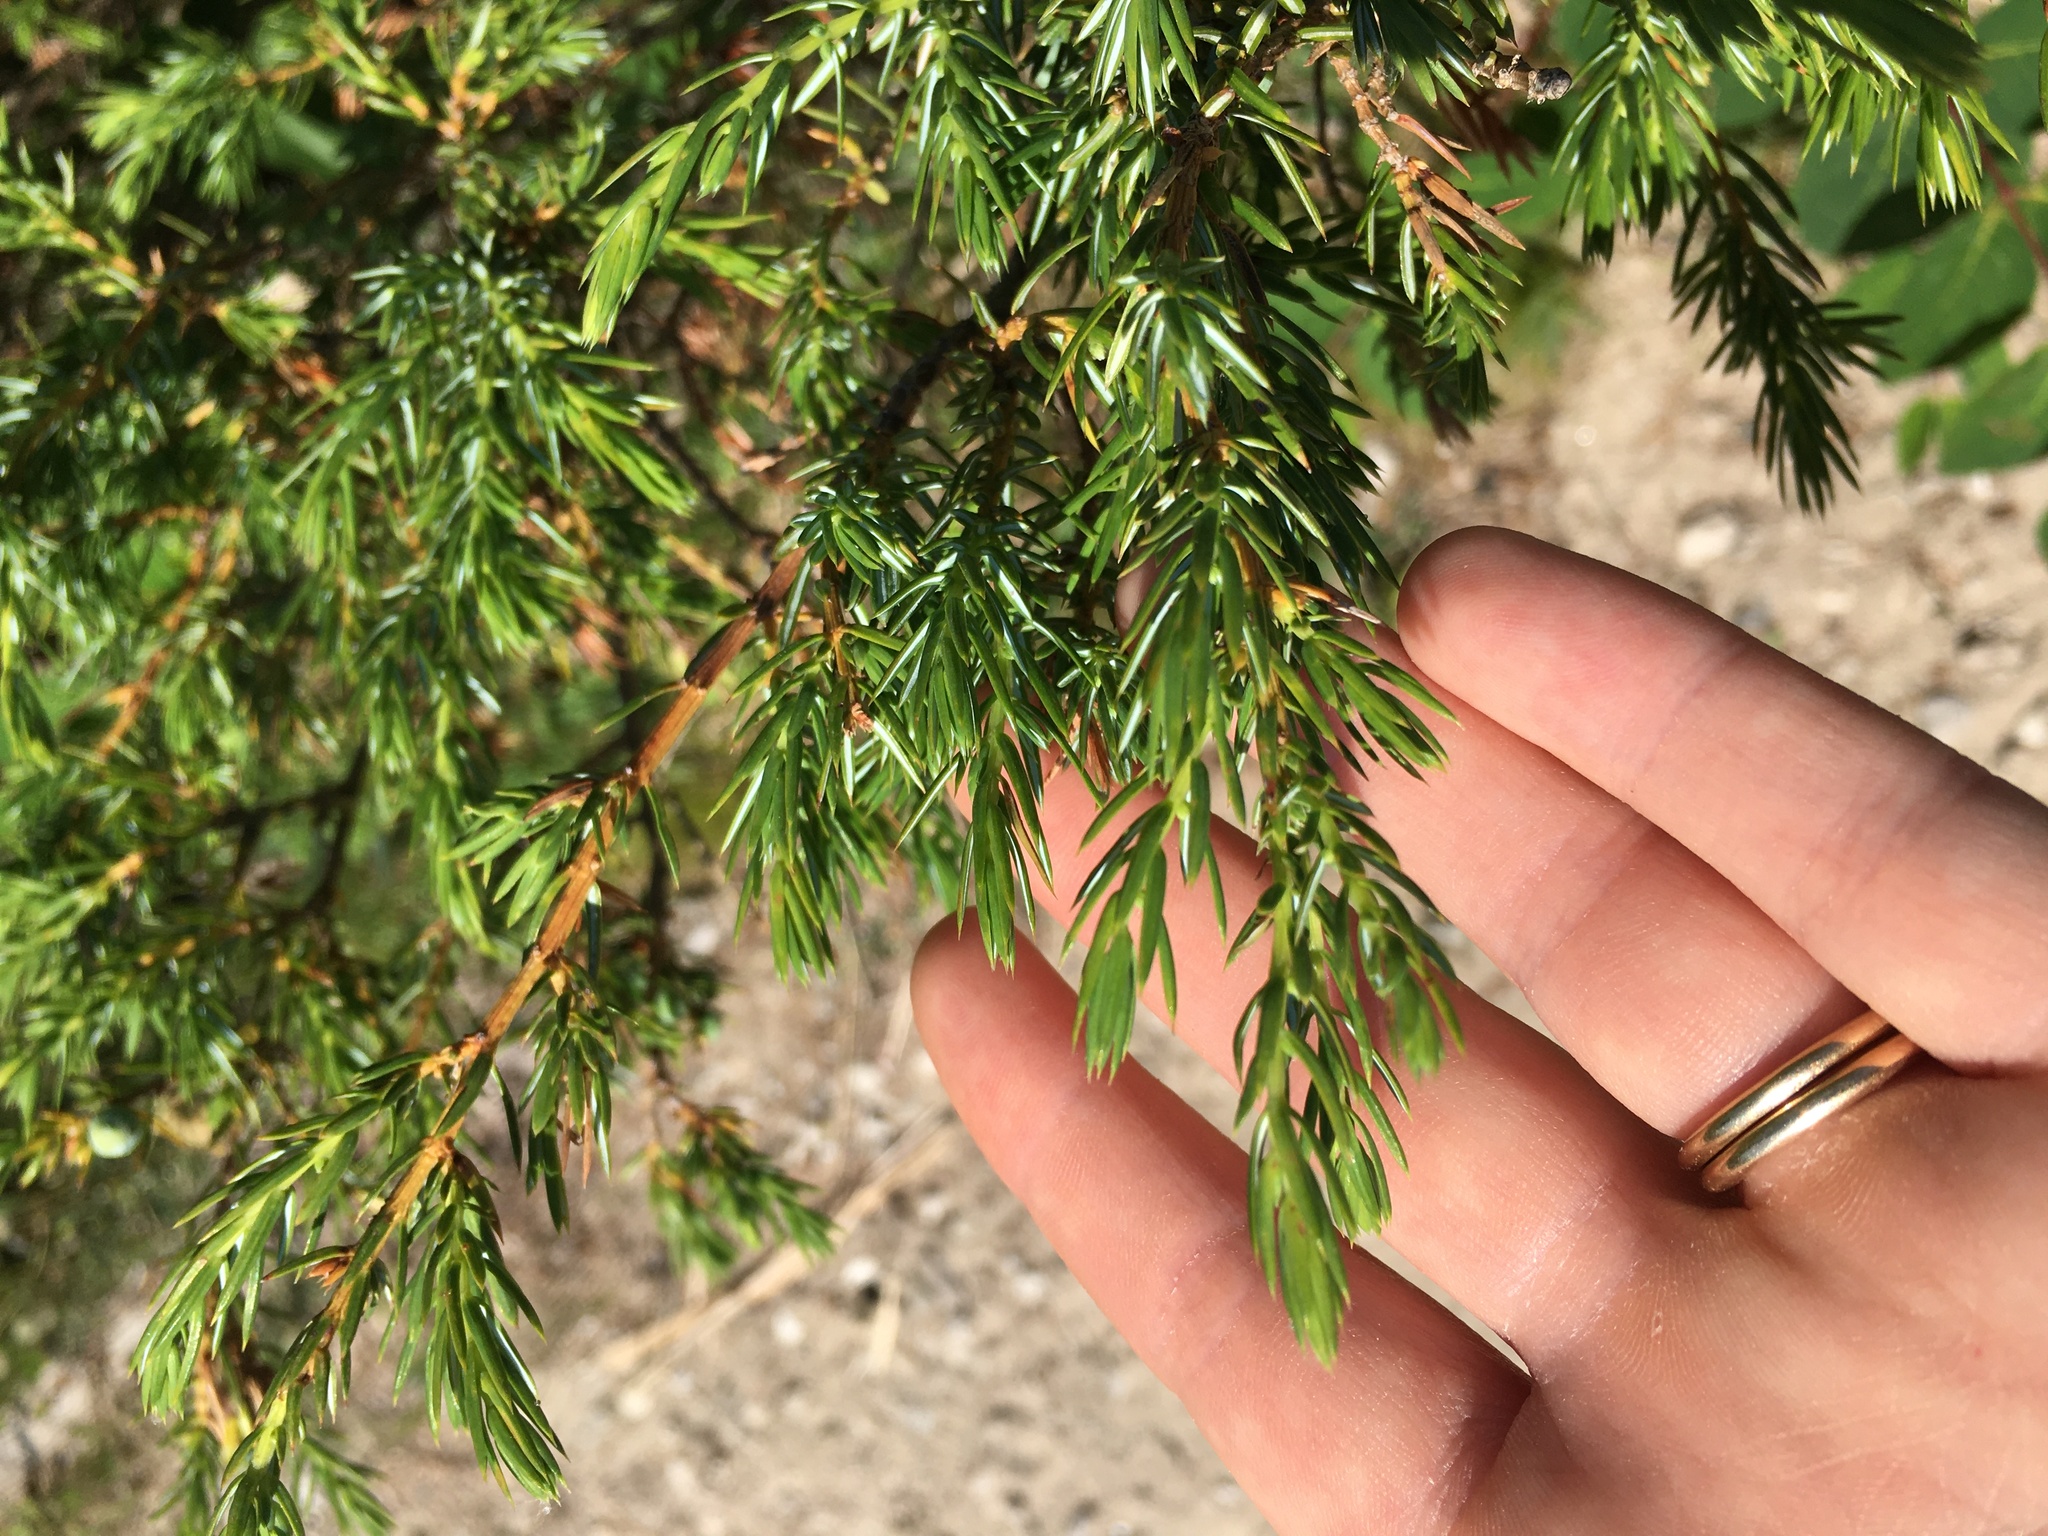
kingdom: Plantae
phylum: Tracheophyta
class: Pinopsida
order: Pinales
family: Cupressaceae
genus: Juniperus
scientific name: Juniperus communis
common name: Common juniper
